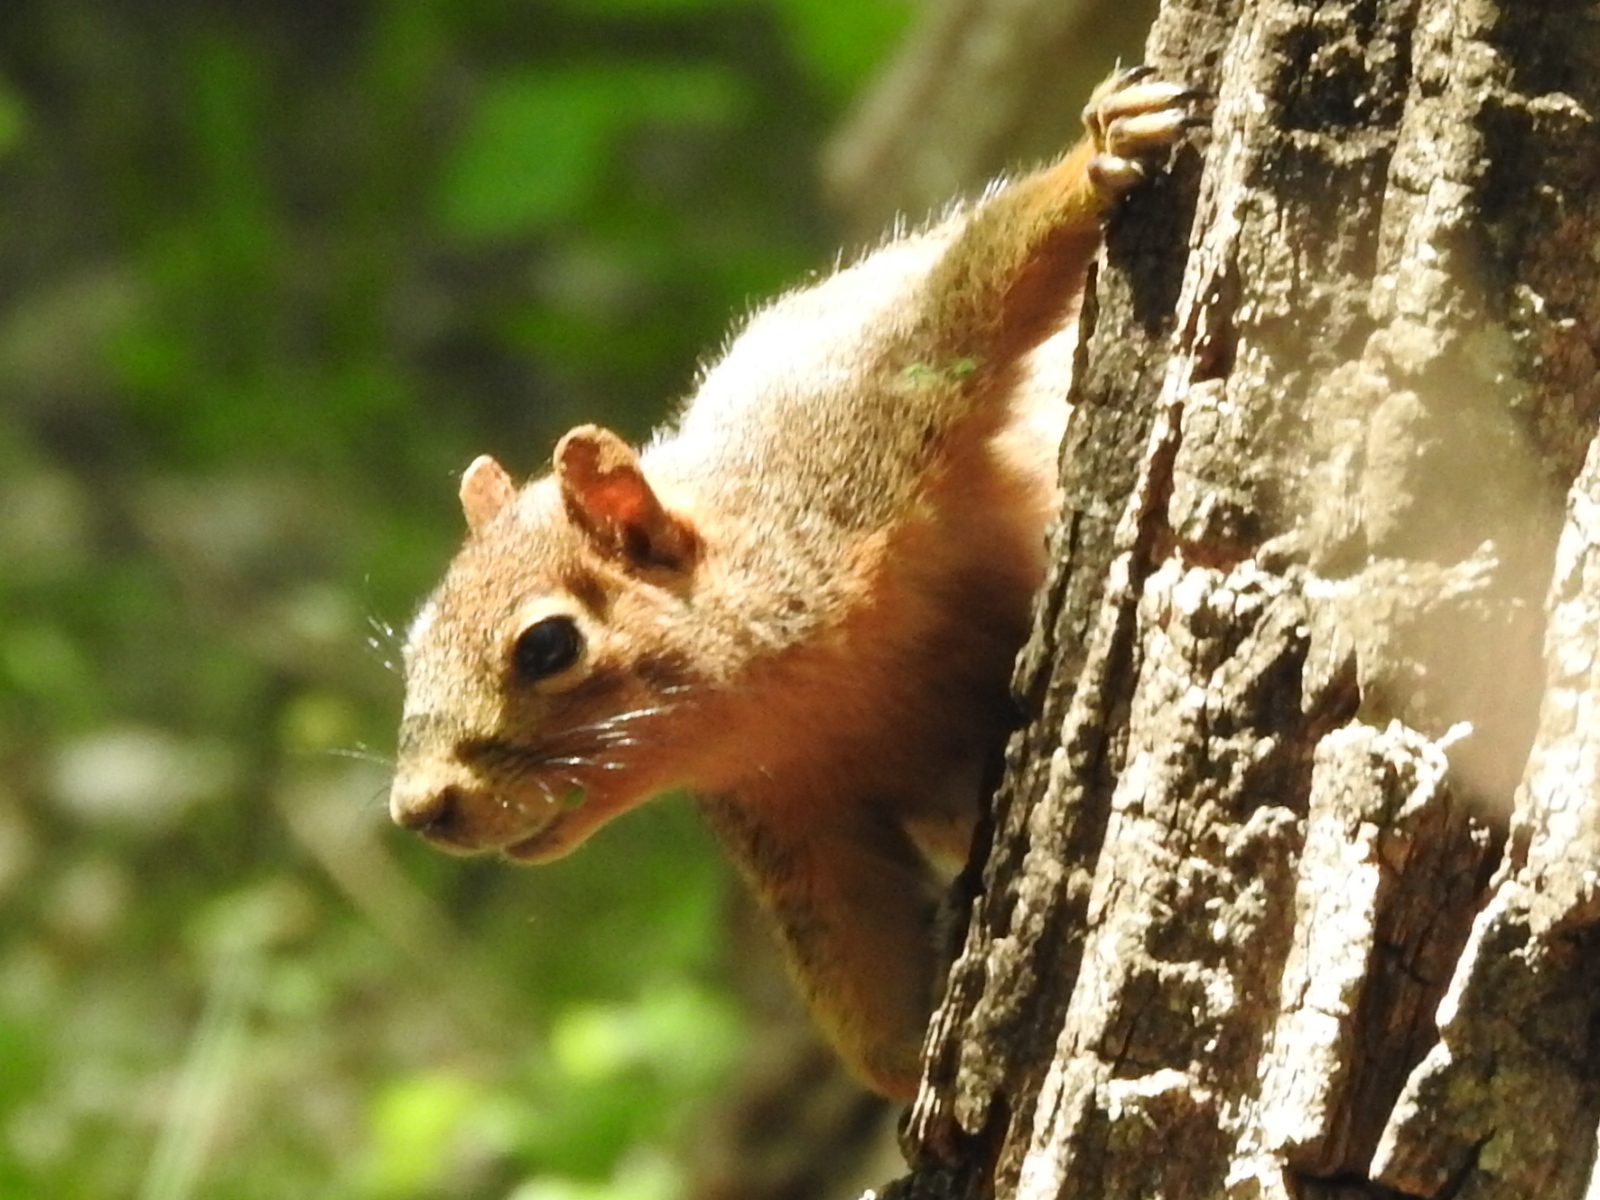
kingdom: Animalia
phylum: Chordata
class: Mammalia
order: Rodentia
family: Sciuridae
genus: Sciurus
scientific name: Sciurus niger
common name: Fox squirrel
